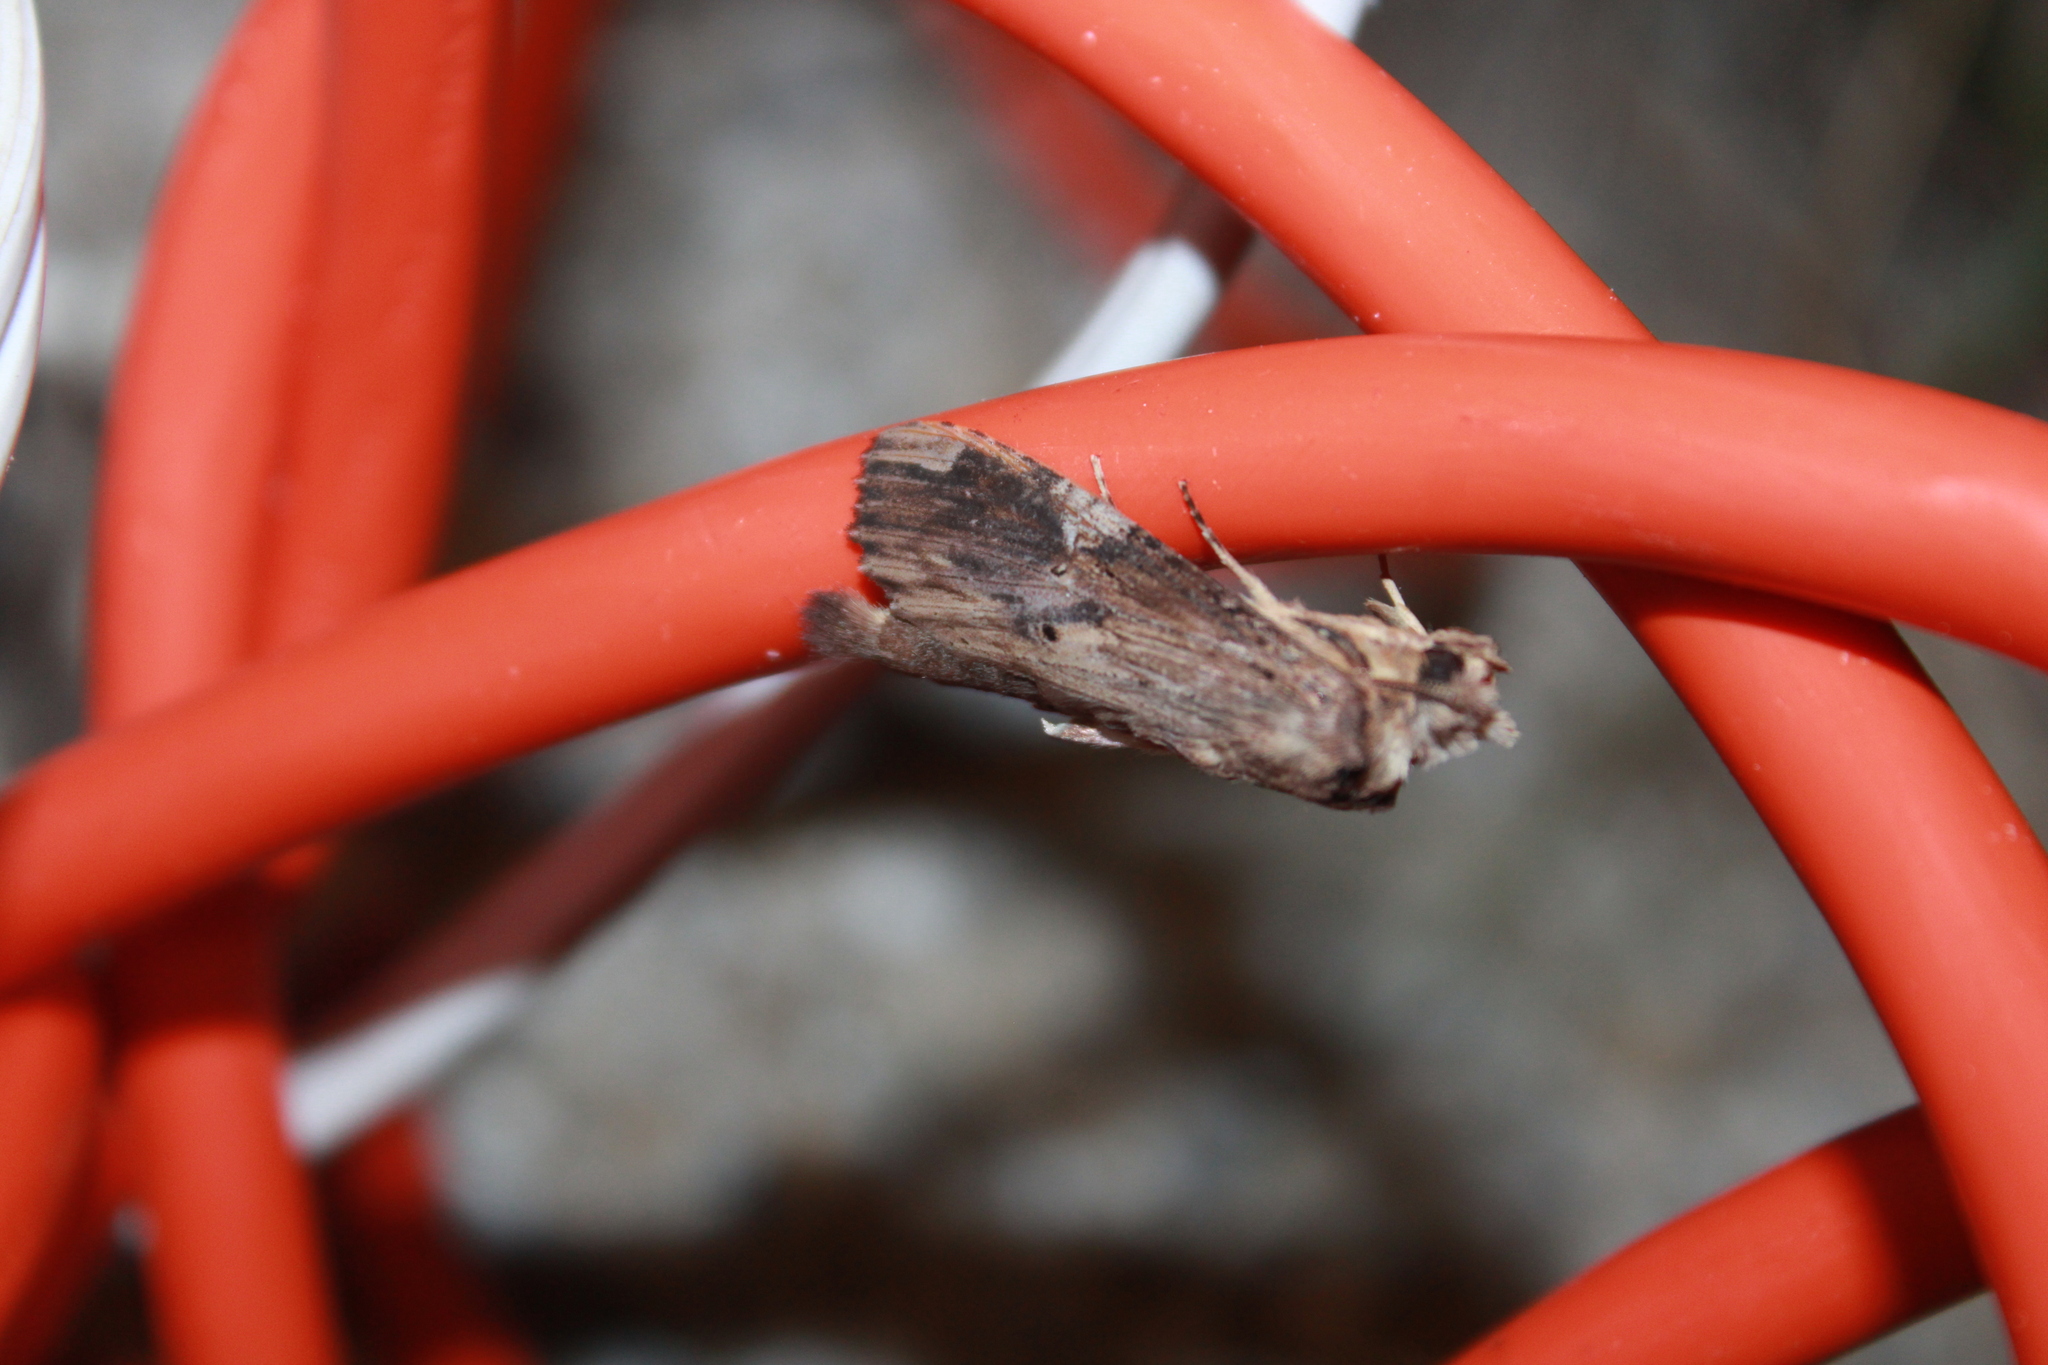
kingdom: Animalia
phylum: Arthropoda
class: Insecta
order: Lepidoptera
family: Notodontidae
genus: Nystalea
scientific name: Nystalea eutalanta
